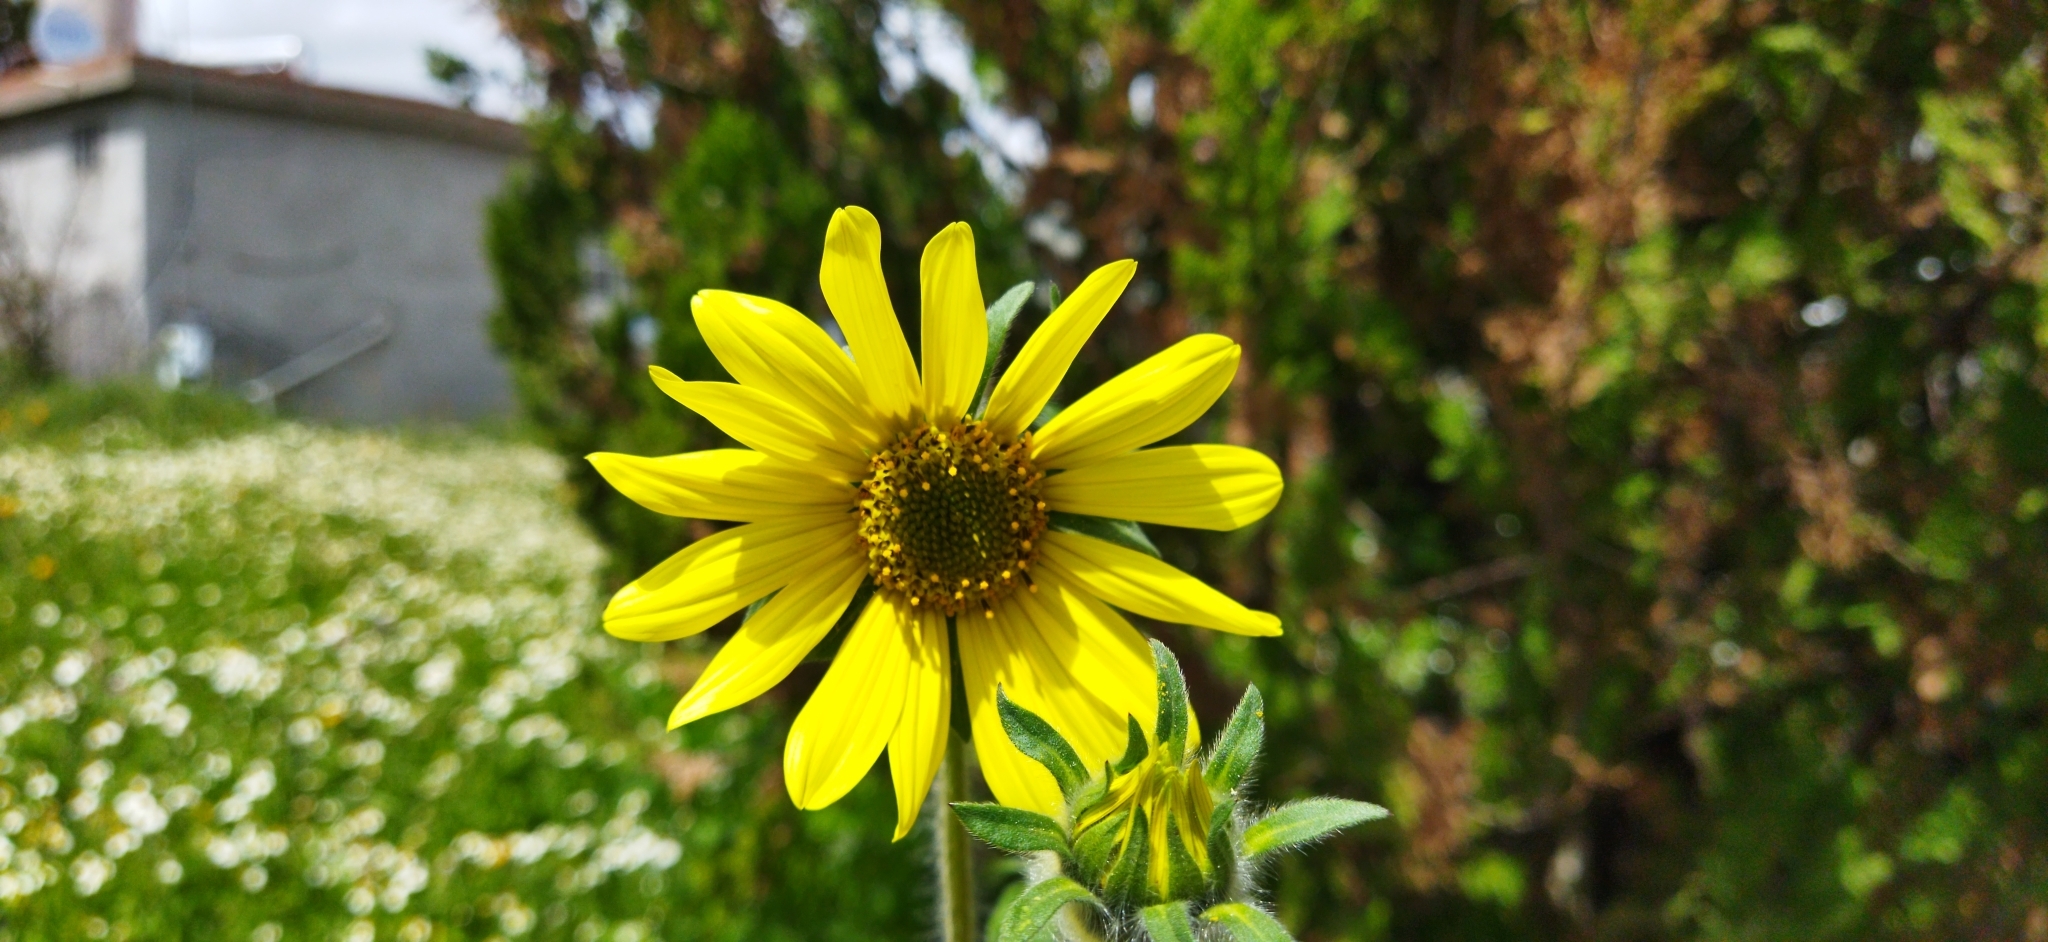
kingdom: Plantae
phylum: Tracheophyta
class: Magnoliopsida
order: Asterales
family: Asteraceae
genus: Tithonia
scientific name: Tithonia tubaeformis
